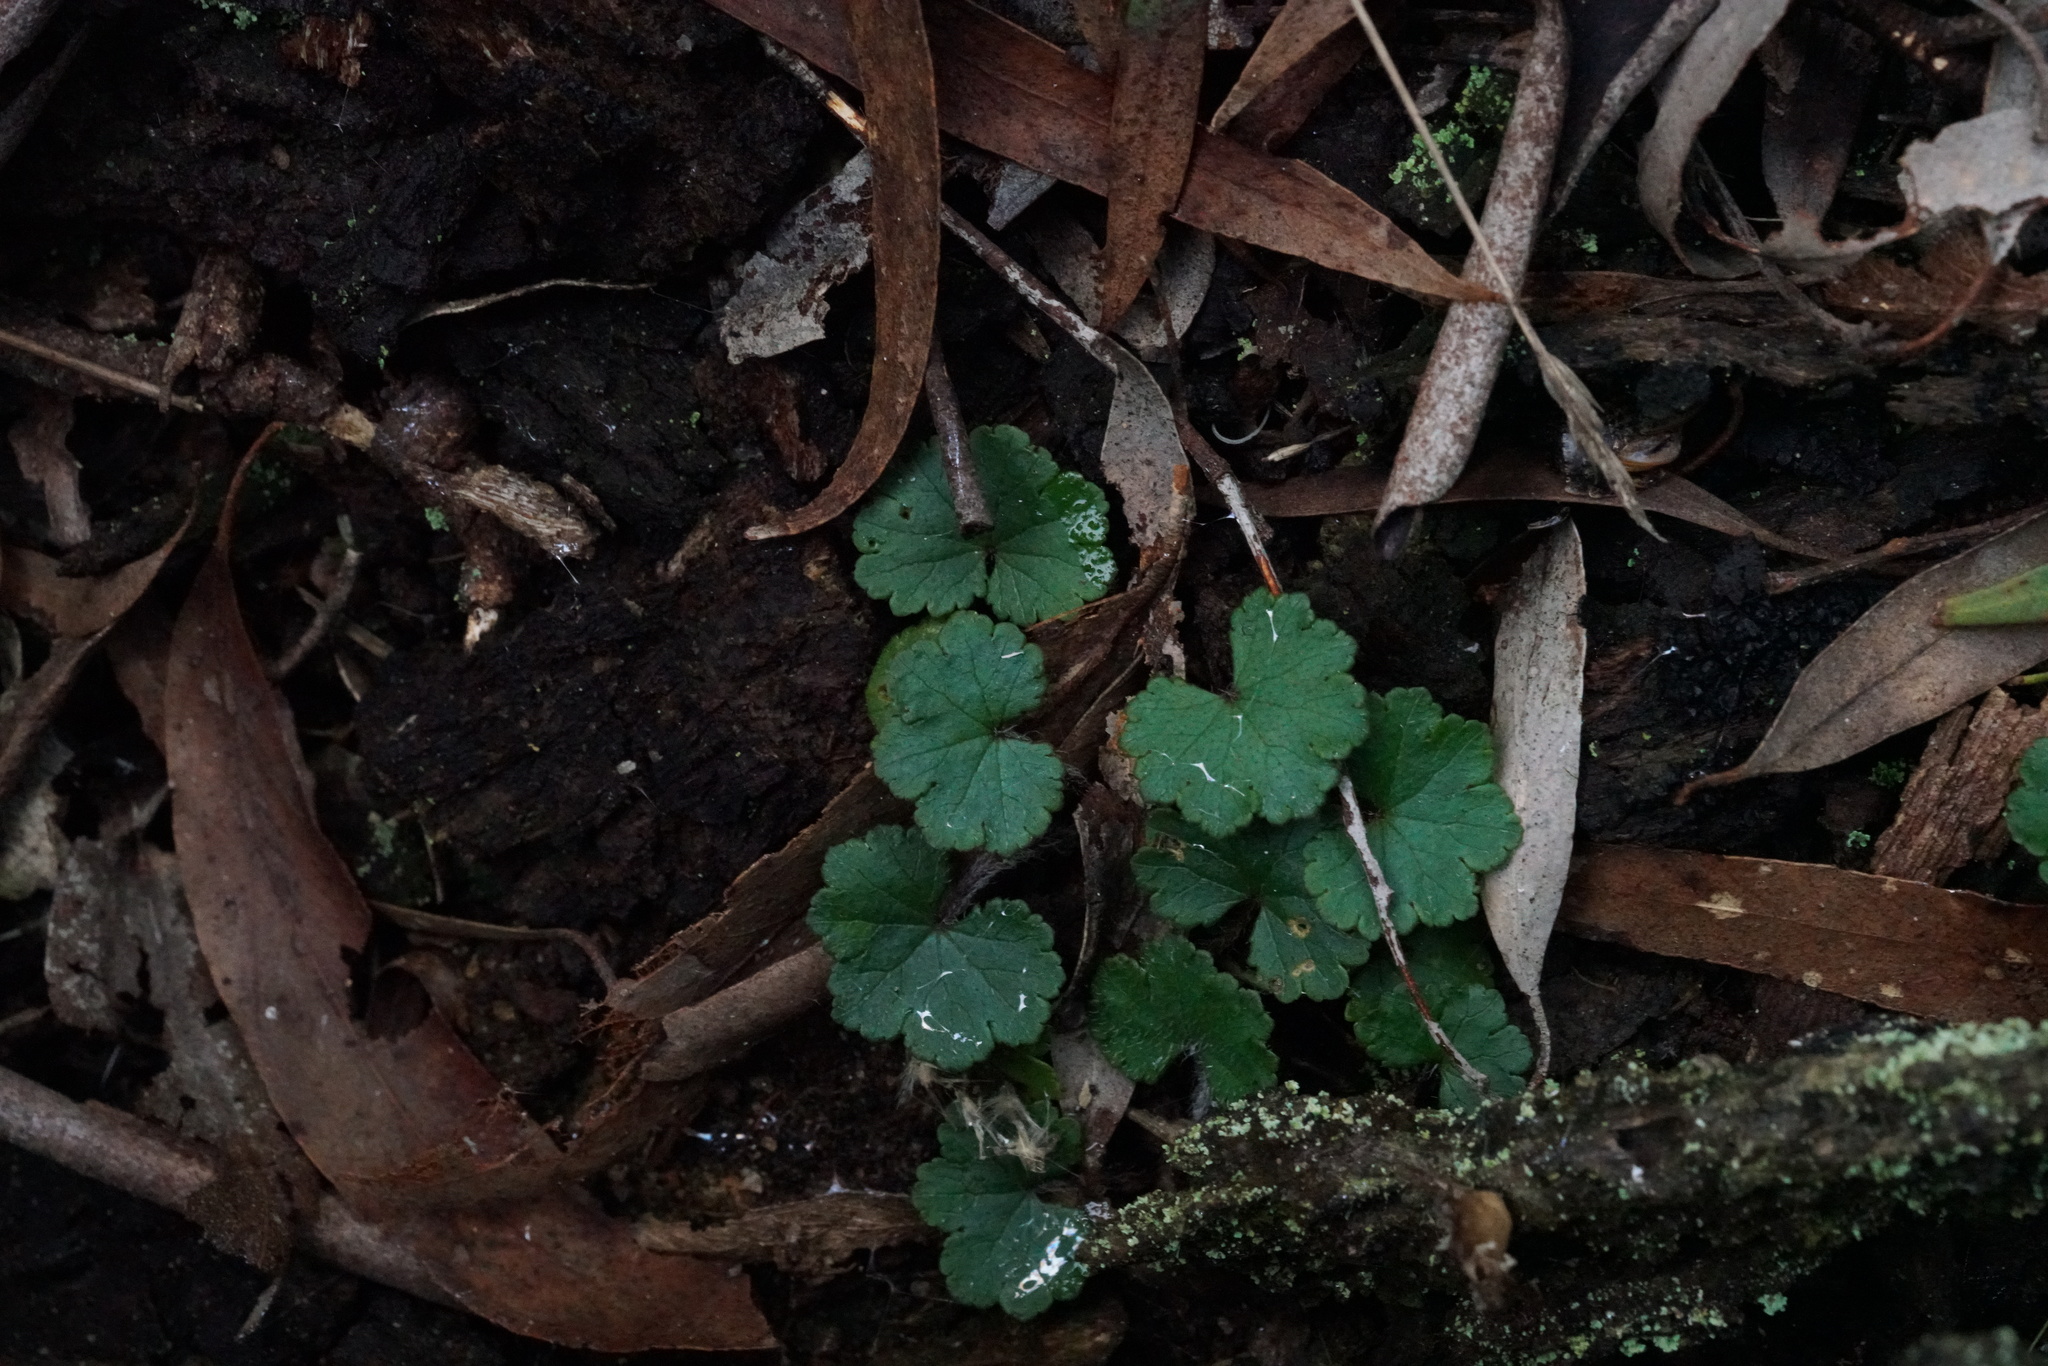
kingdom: Plantae
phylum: Tracheophyta
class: Magnoliopsida
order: Apiales
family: Araliaceae
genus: Hydrocotyle
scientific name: Hydrocotyle laxiflora
